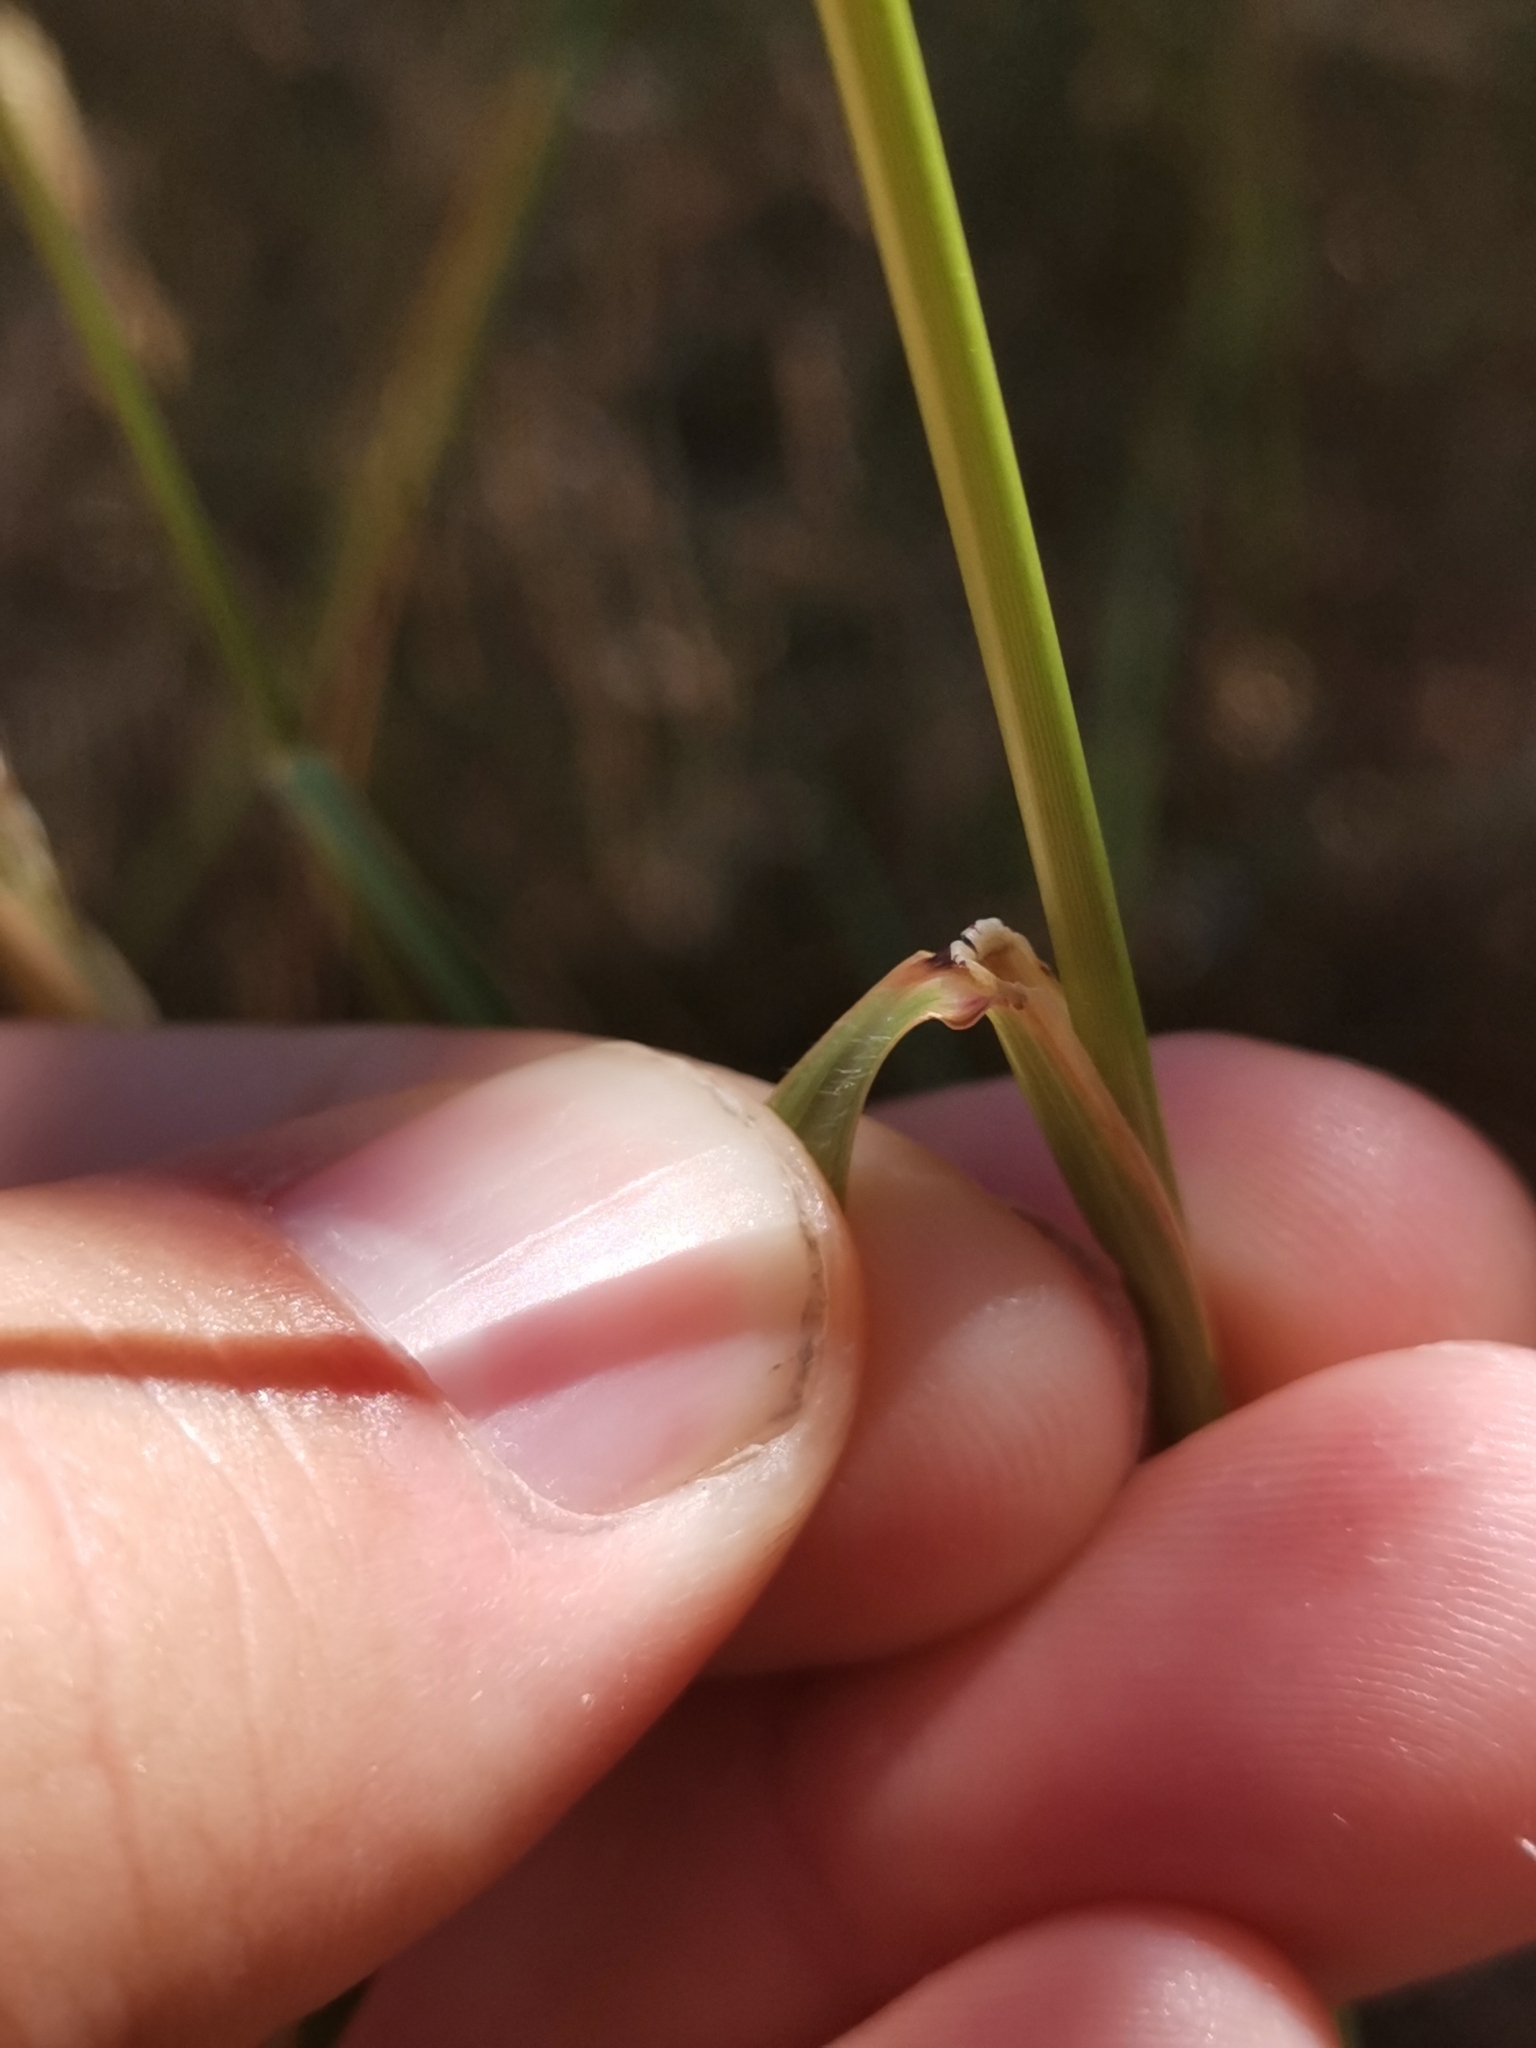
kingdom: Plantae
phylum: Tracheophyta
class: Liliopsida
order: Poales
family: Poaceae
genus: Oloptum
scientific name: Oloptum thomasii
